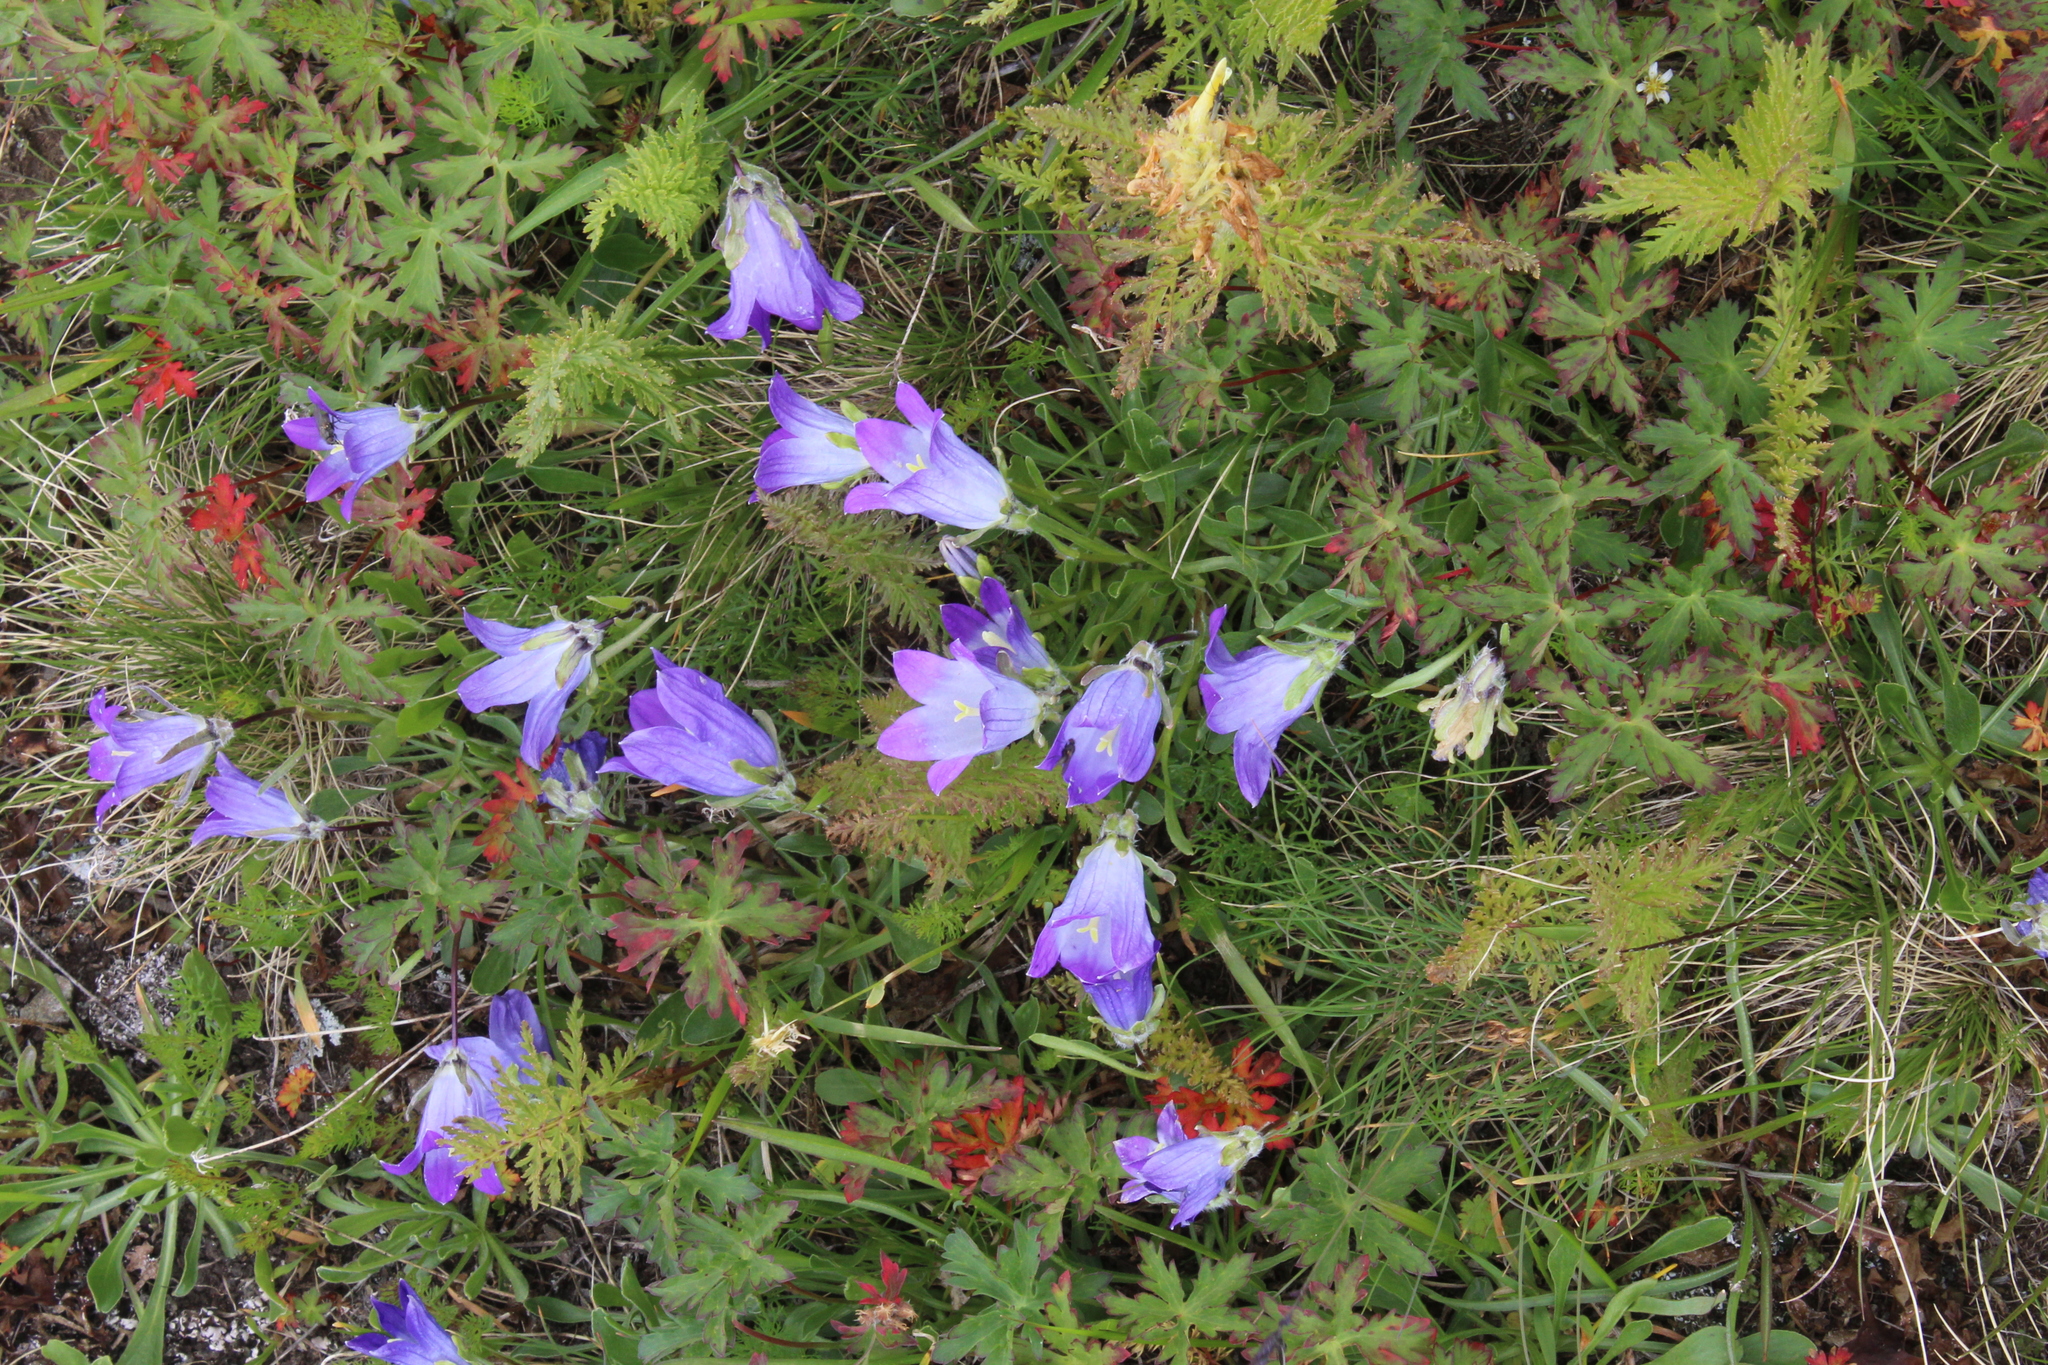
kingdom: Plantae
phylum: Tracheophyta
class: Magnoliopsida
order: Asterales
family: Campanulaceae
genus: Campanula
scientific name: Campanula tridentata
